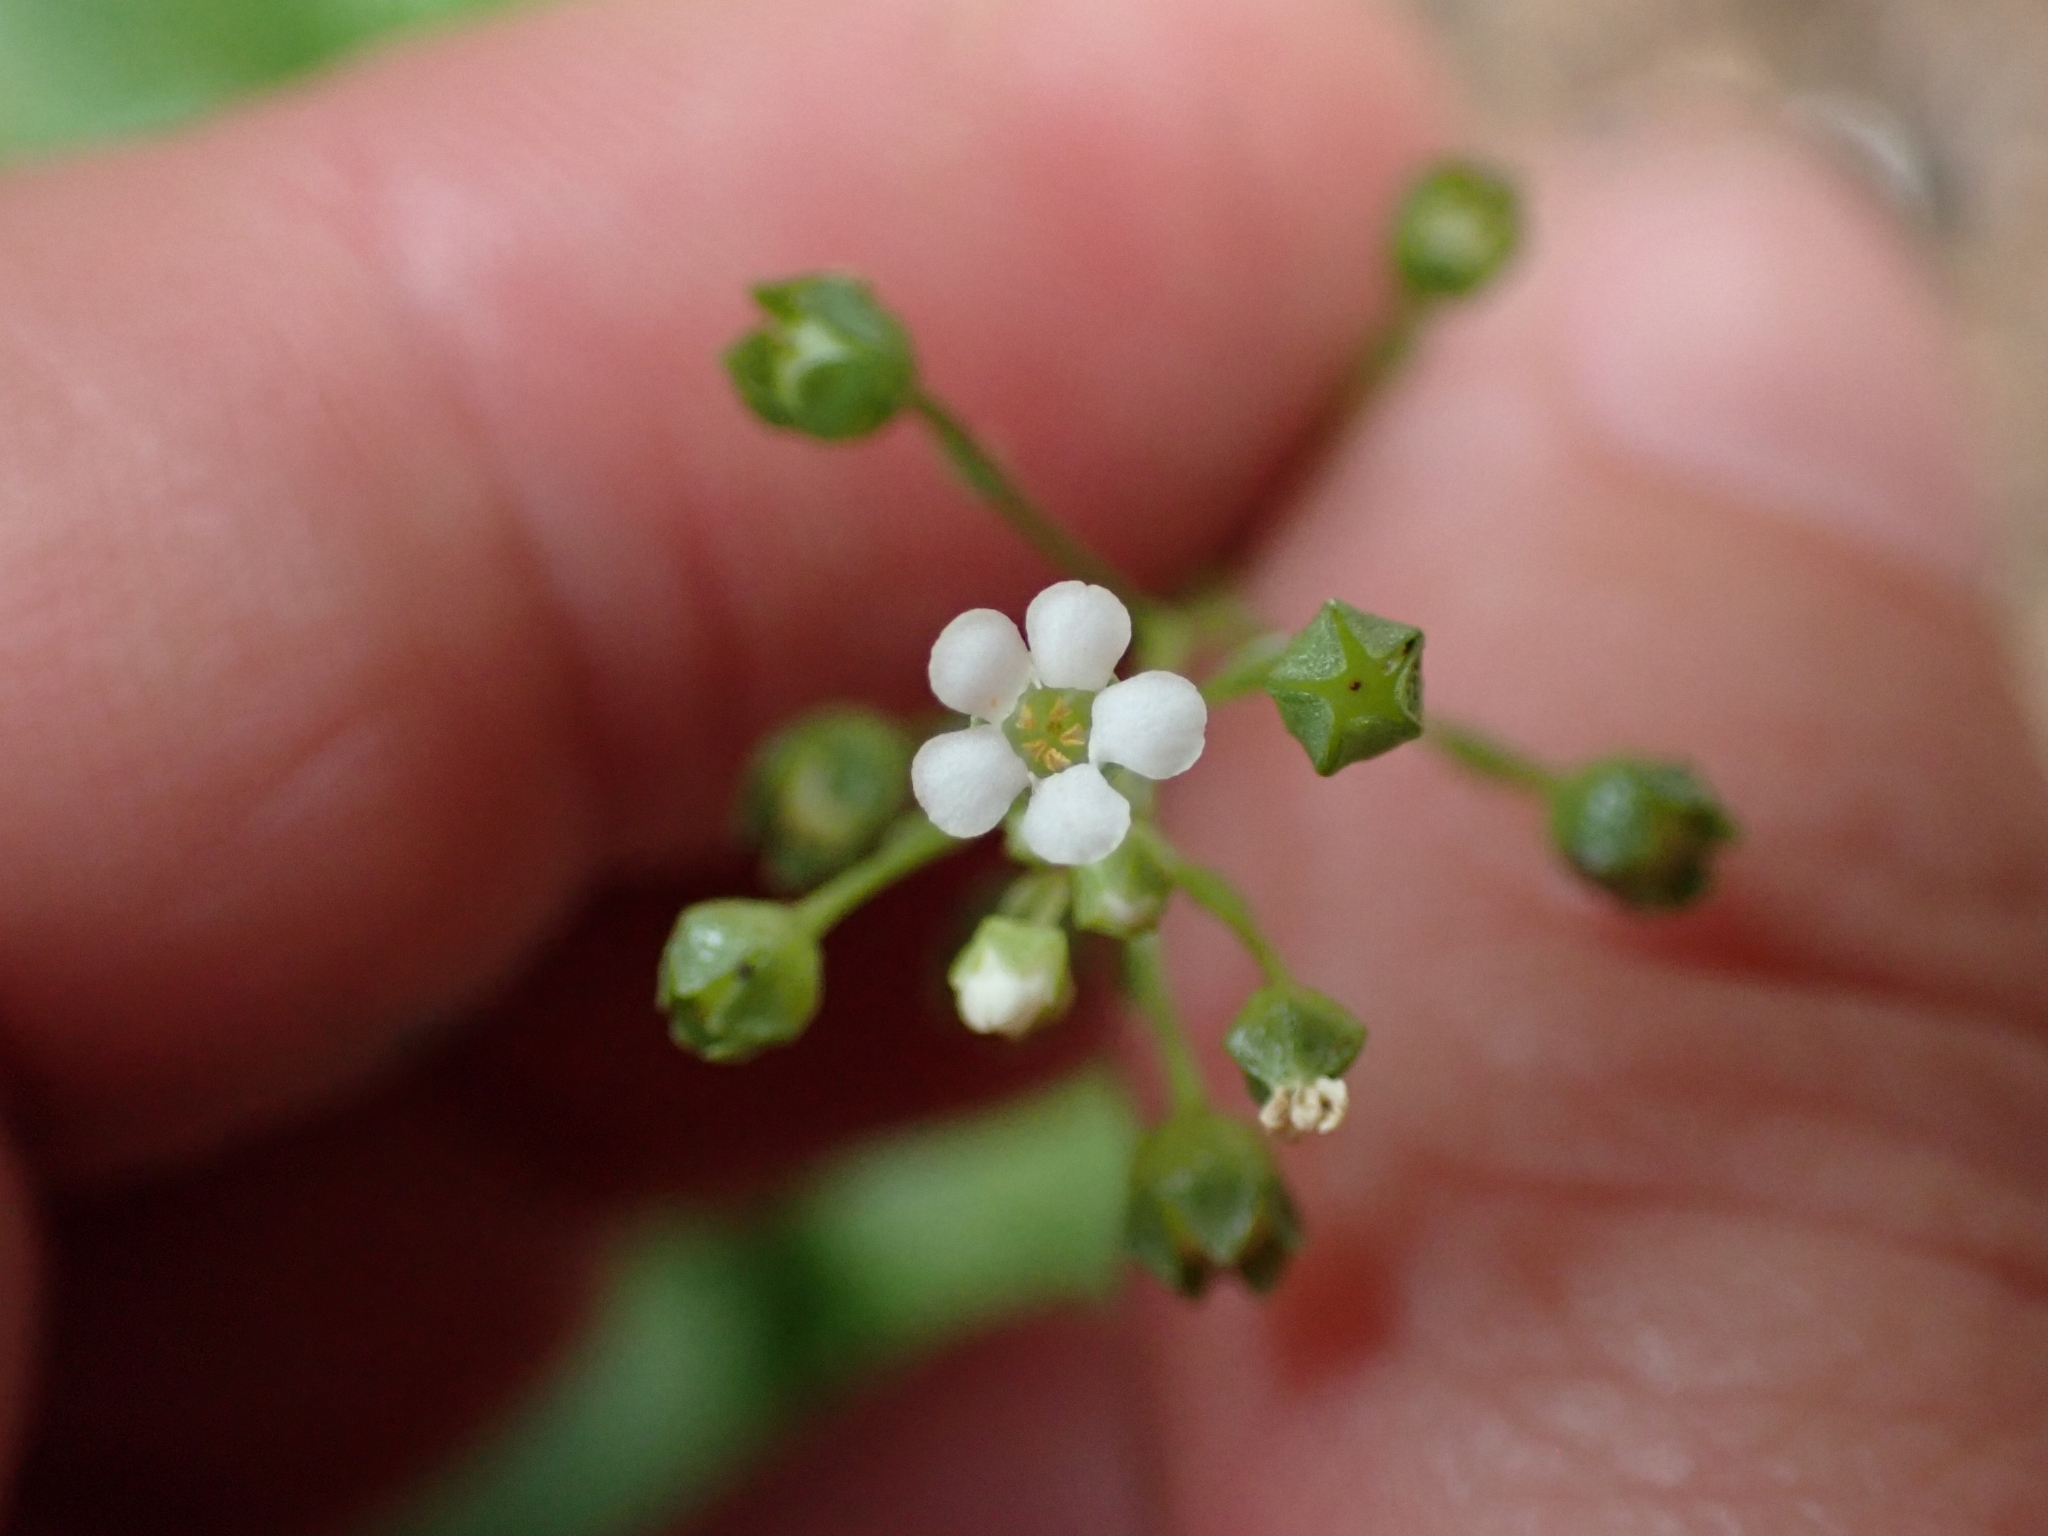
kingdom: Plantae
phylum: Tracheophyta
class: Magnoliopsida
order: Ericales
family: Primulaceae
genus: Samolus
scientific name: Samolus valerandi
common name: Brookweed
